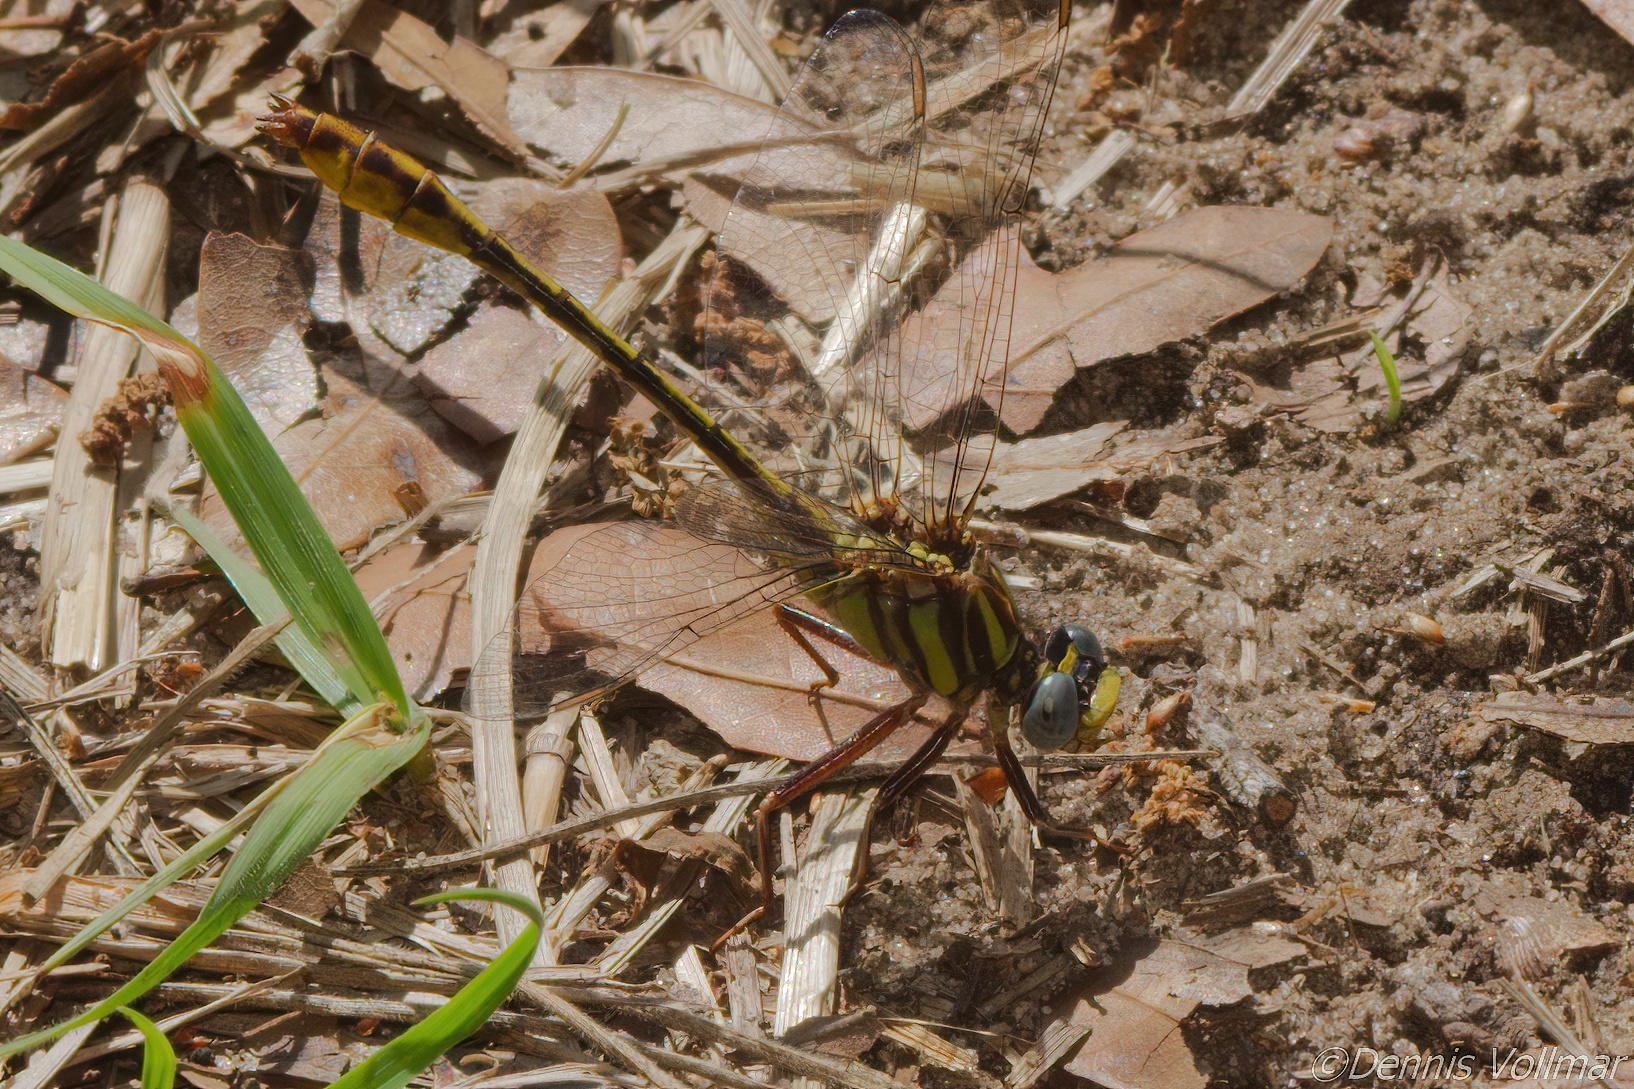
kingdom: Animalia
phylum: Arthropoda
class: Insecta
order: Odonata
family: Gomphidae
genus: Phanogomphus
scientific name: Phanogomphus minutus
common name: Cypress clubtail
